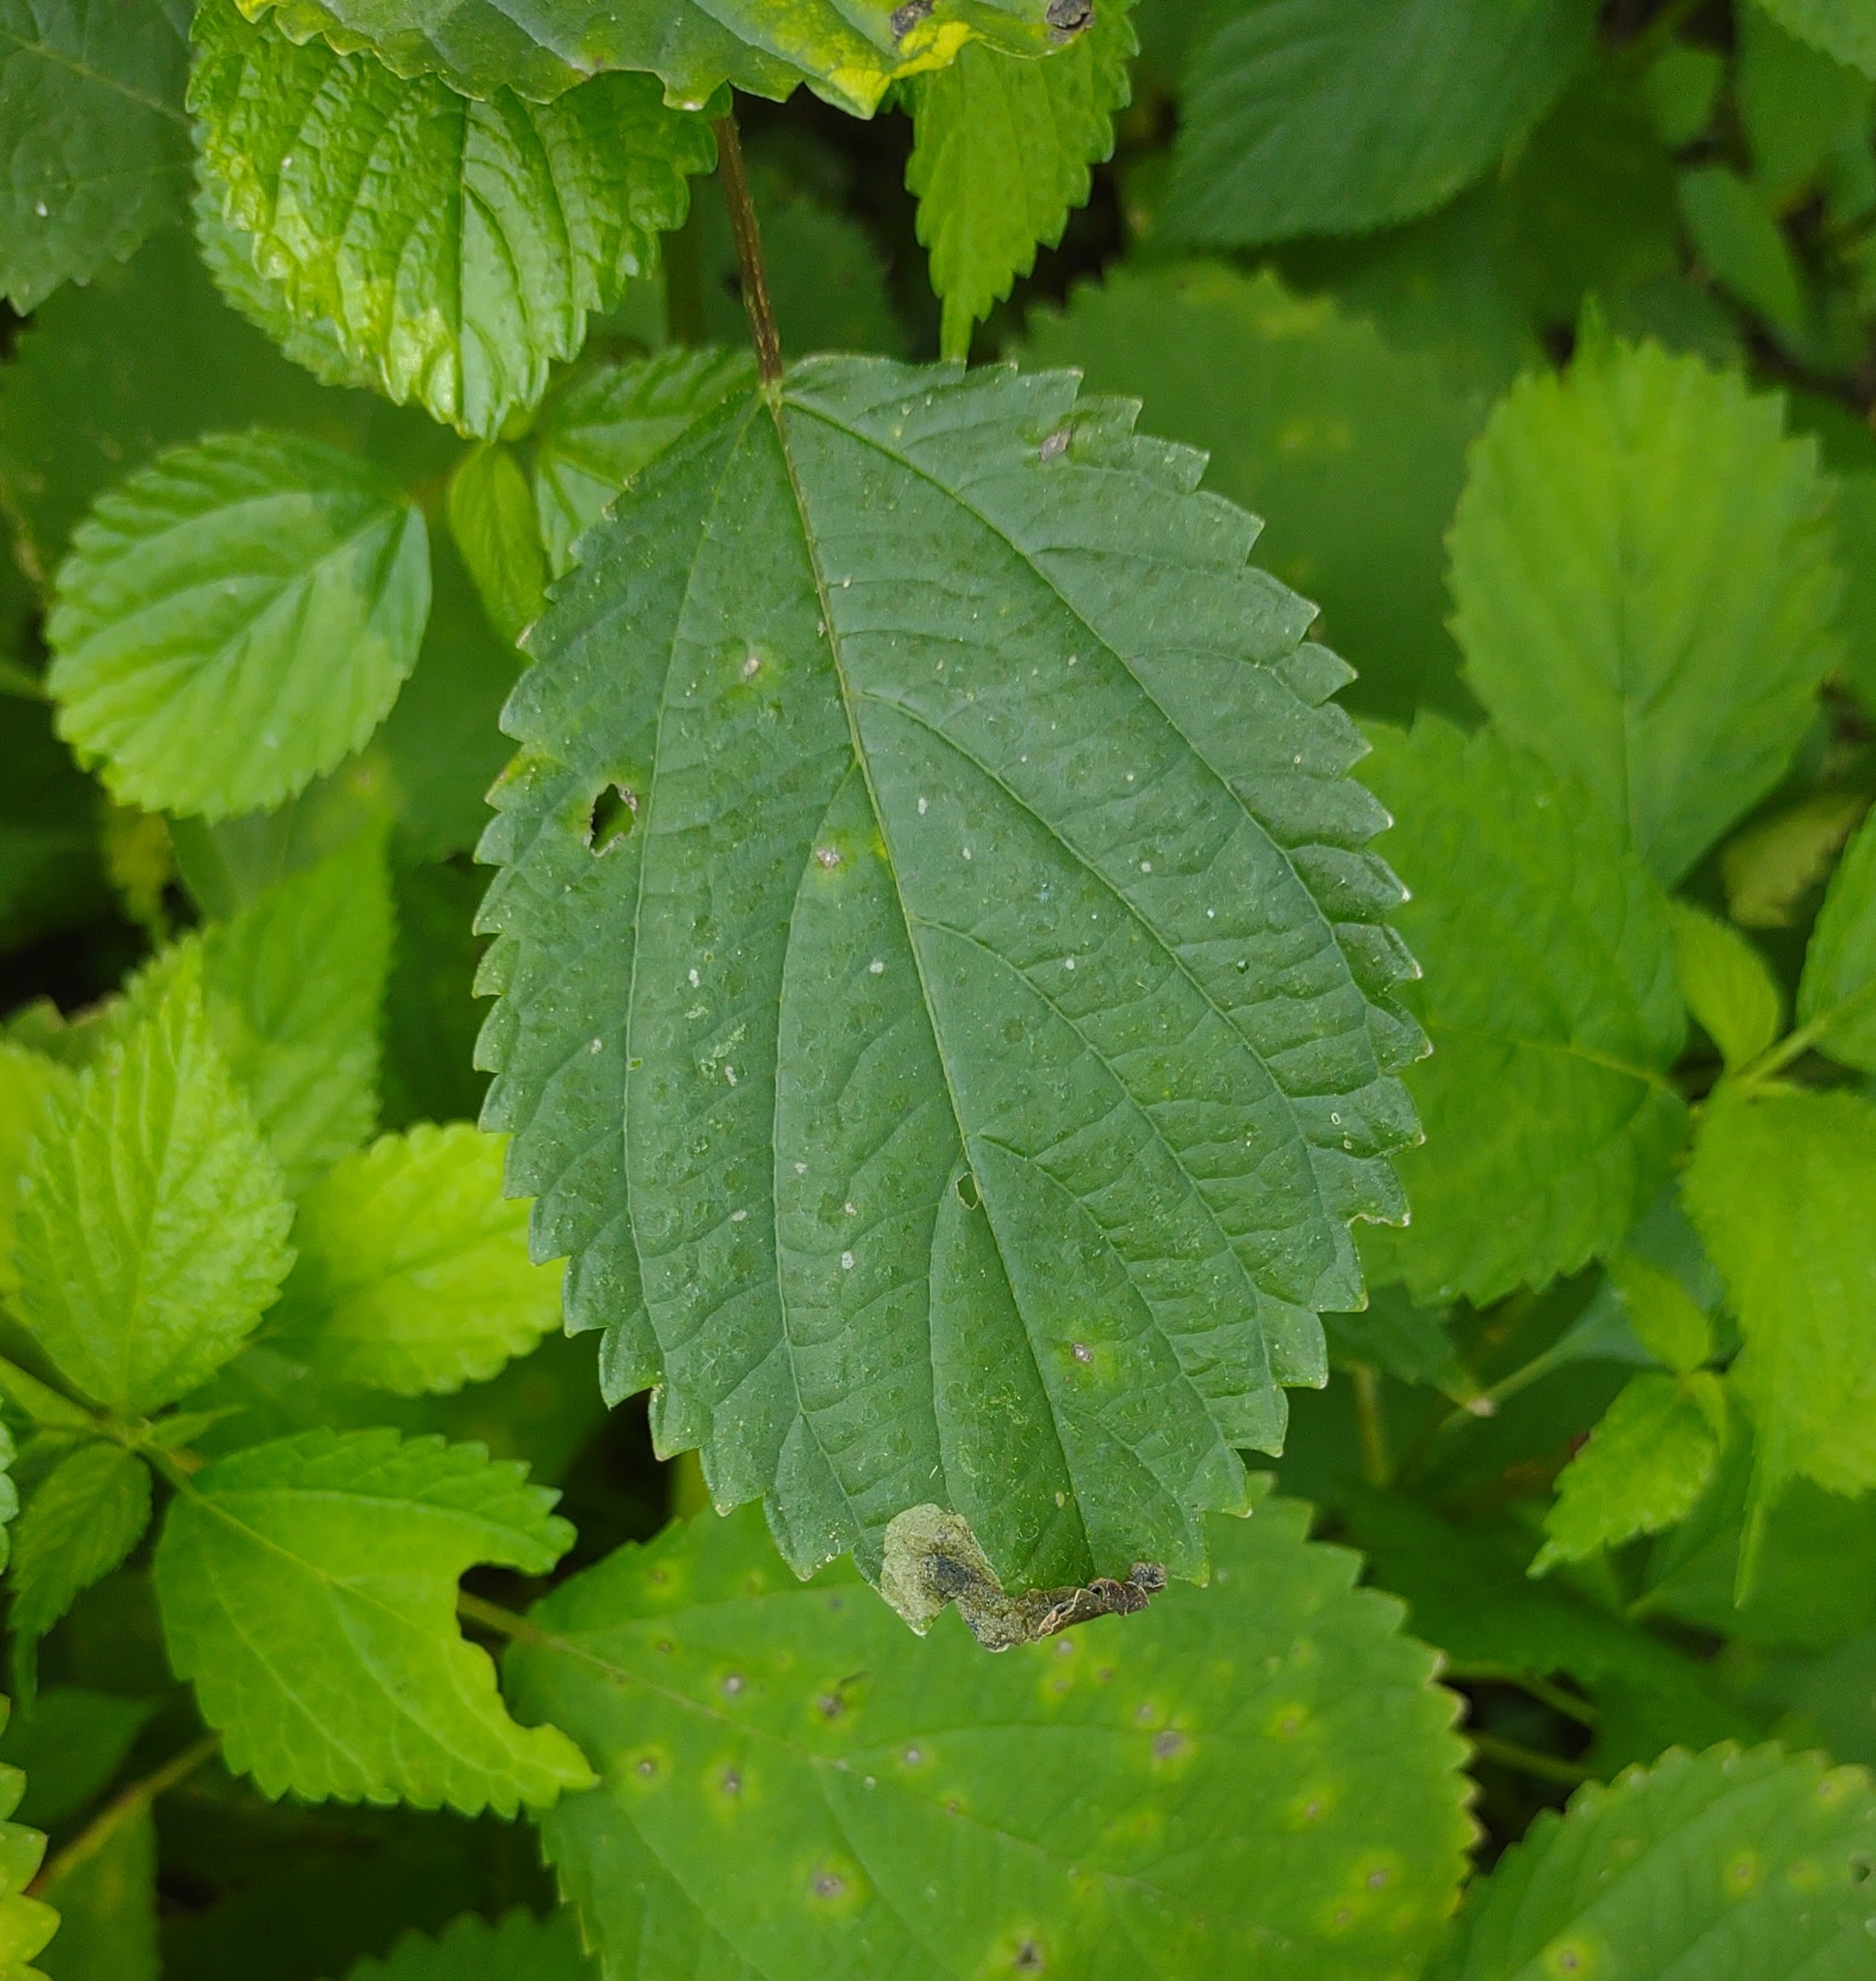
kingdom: Animalia
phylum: Arthropoda
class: Insecta
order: Diptera
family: Agromyzidae
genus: Agromyza
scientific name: Agromyza diversa
